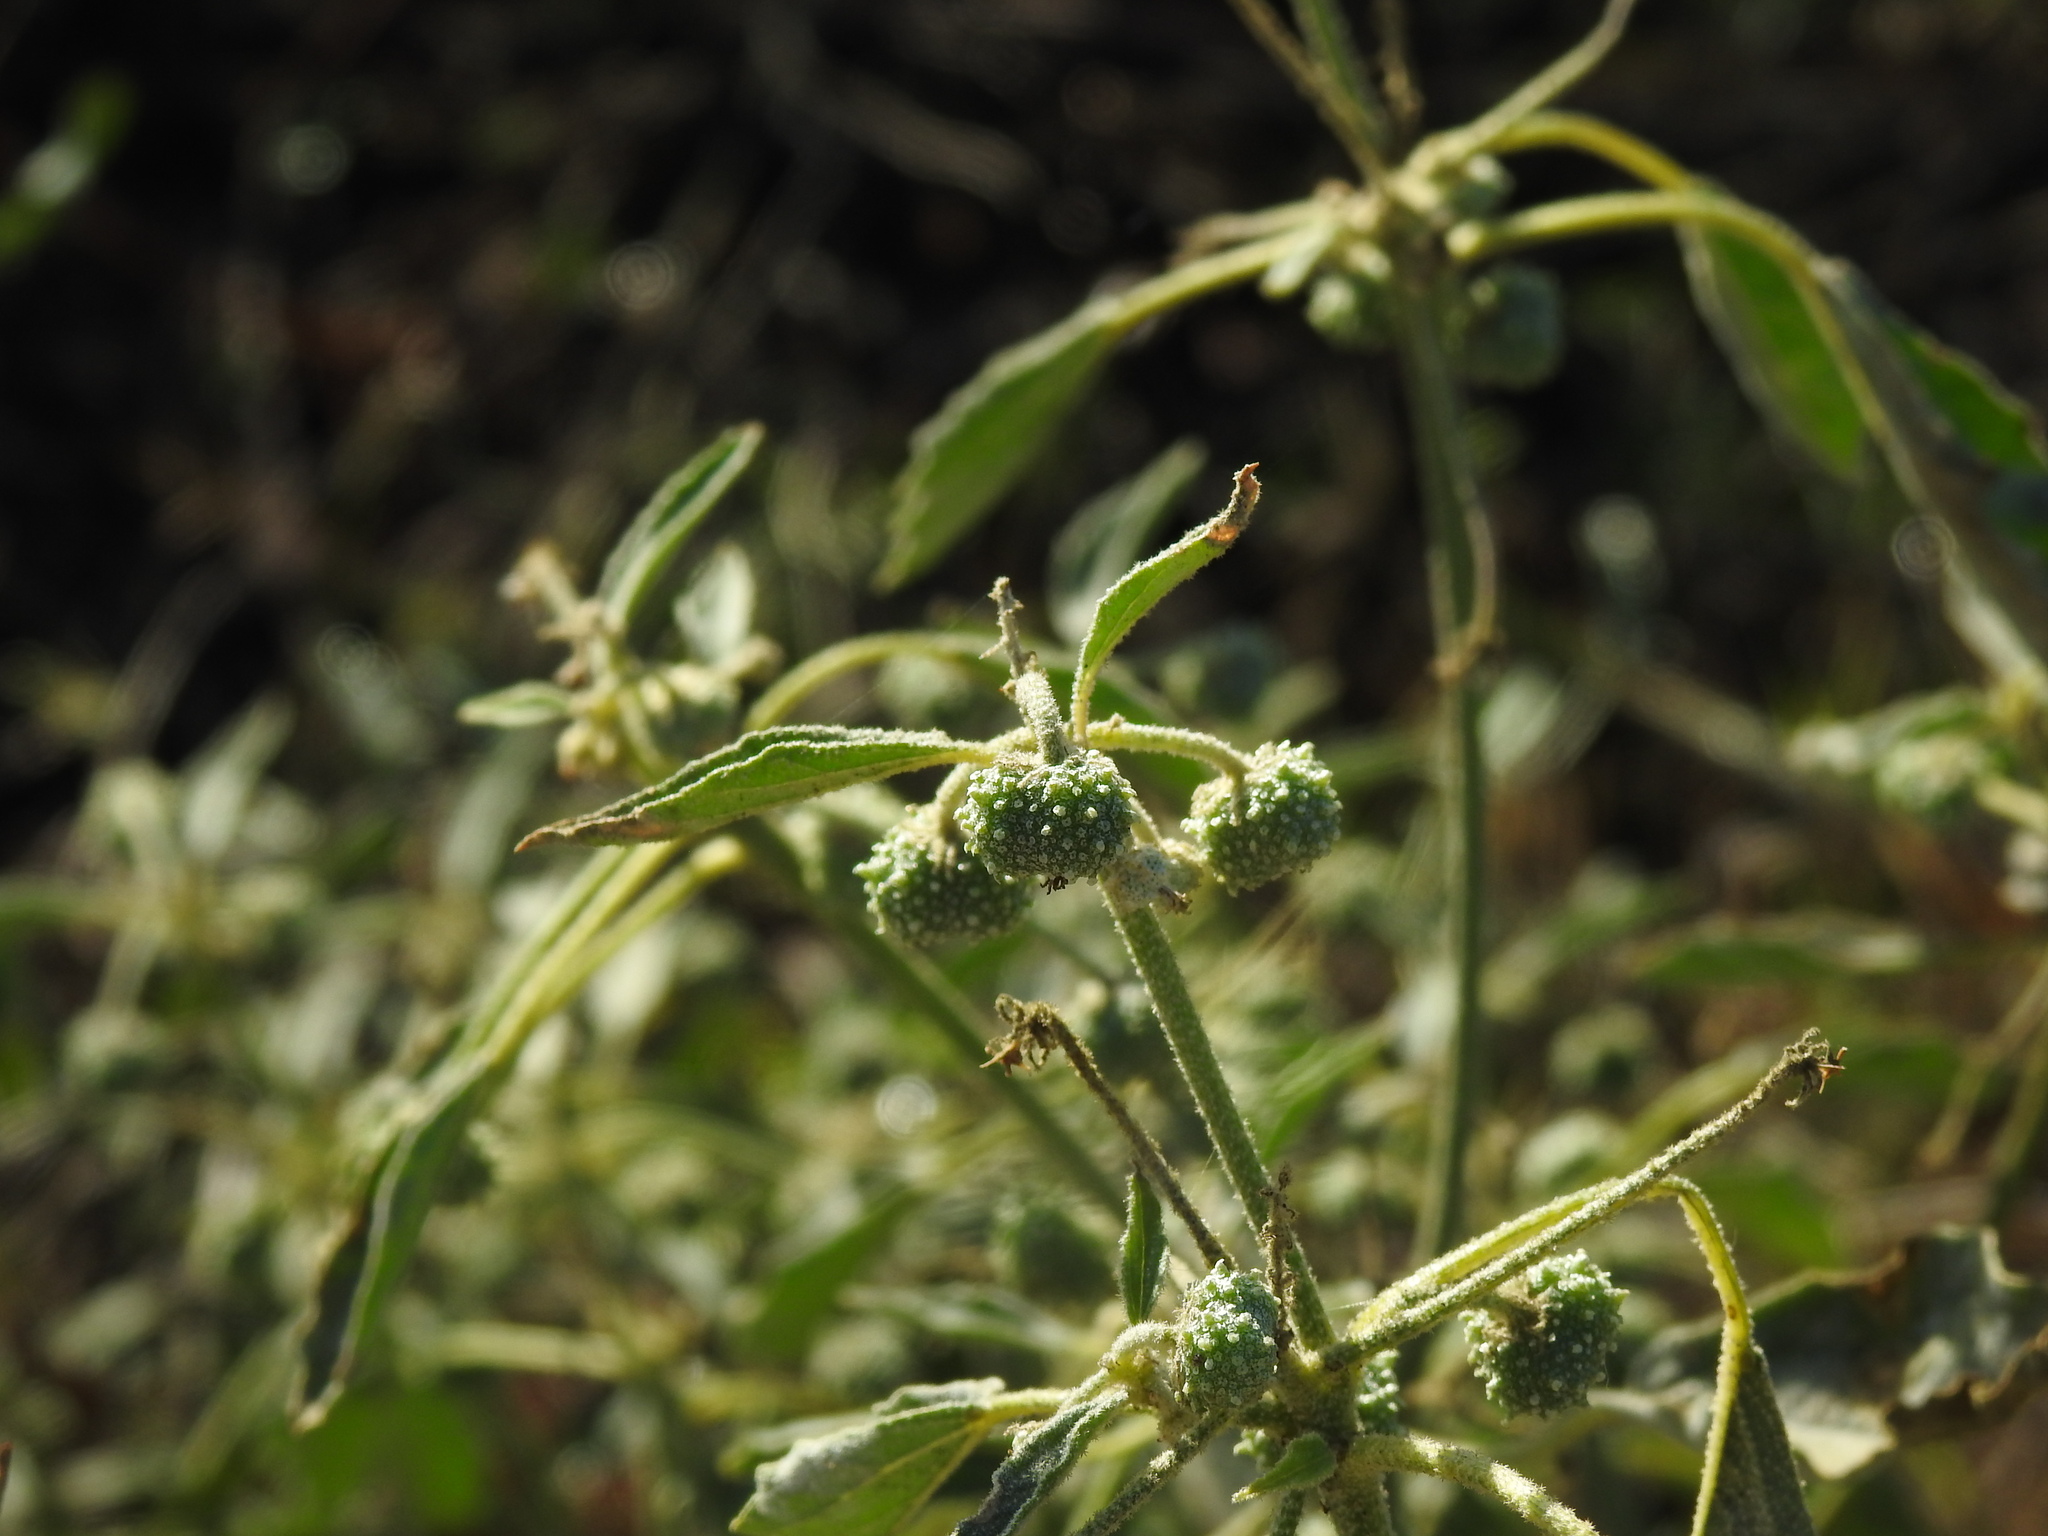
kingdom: Plantae
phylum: Tracheophyta
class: Magnoliopsida
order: Malpighiales
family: Euphorbiaceae
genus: Chrozophora
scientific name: Chrozophora tinctoria
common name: Dyer's litmus
